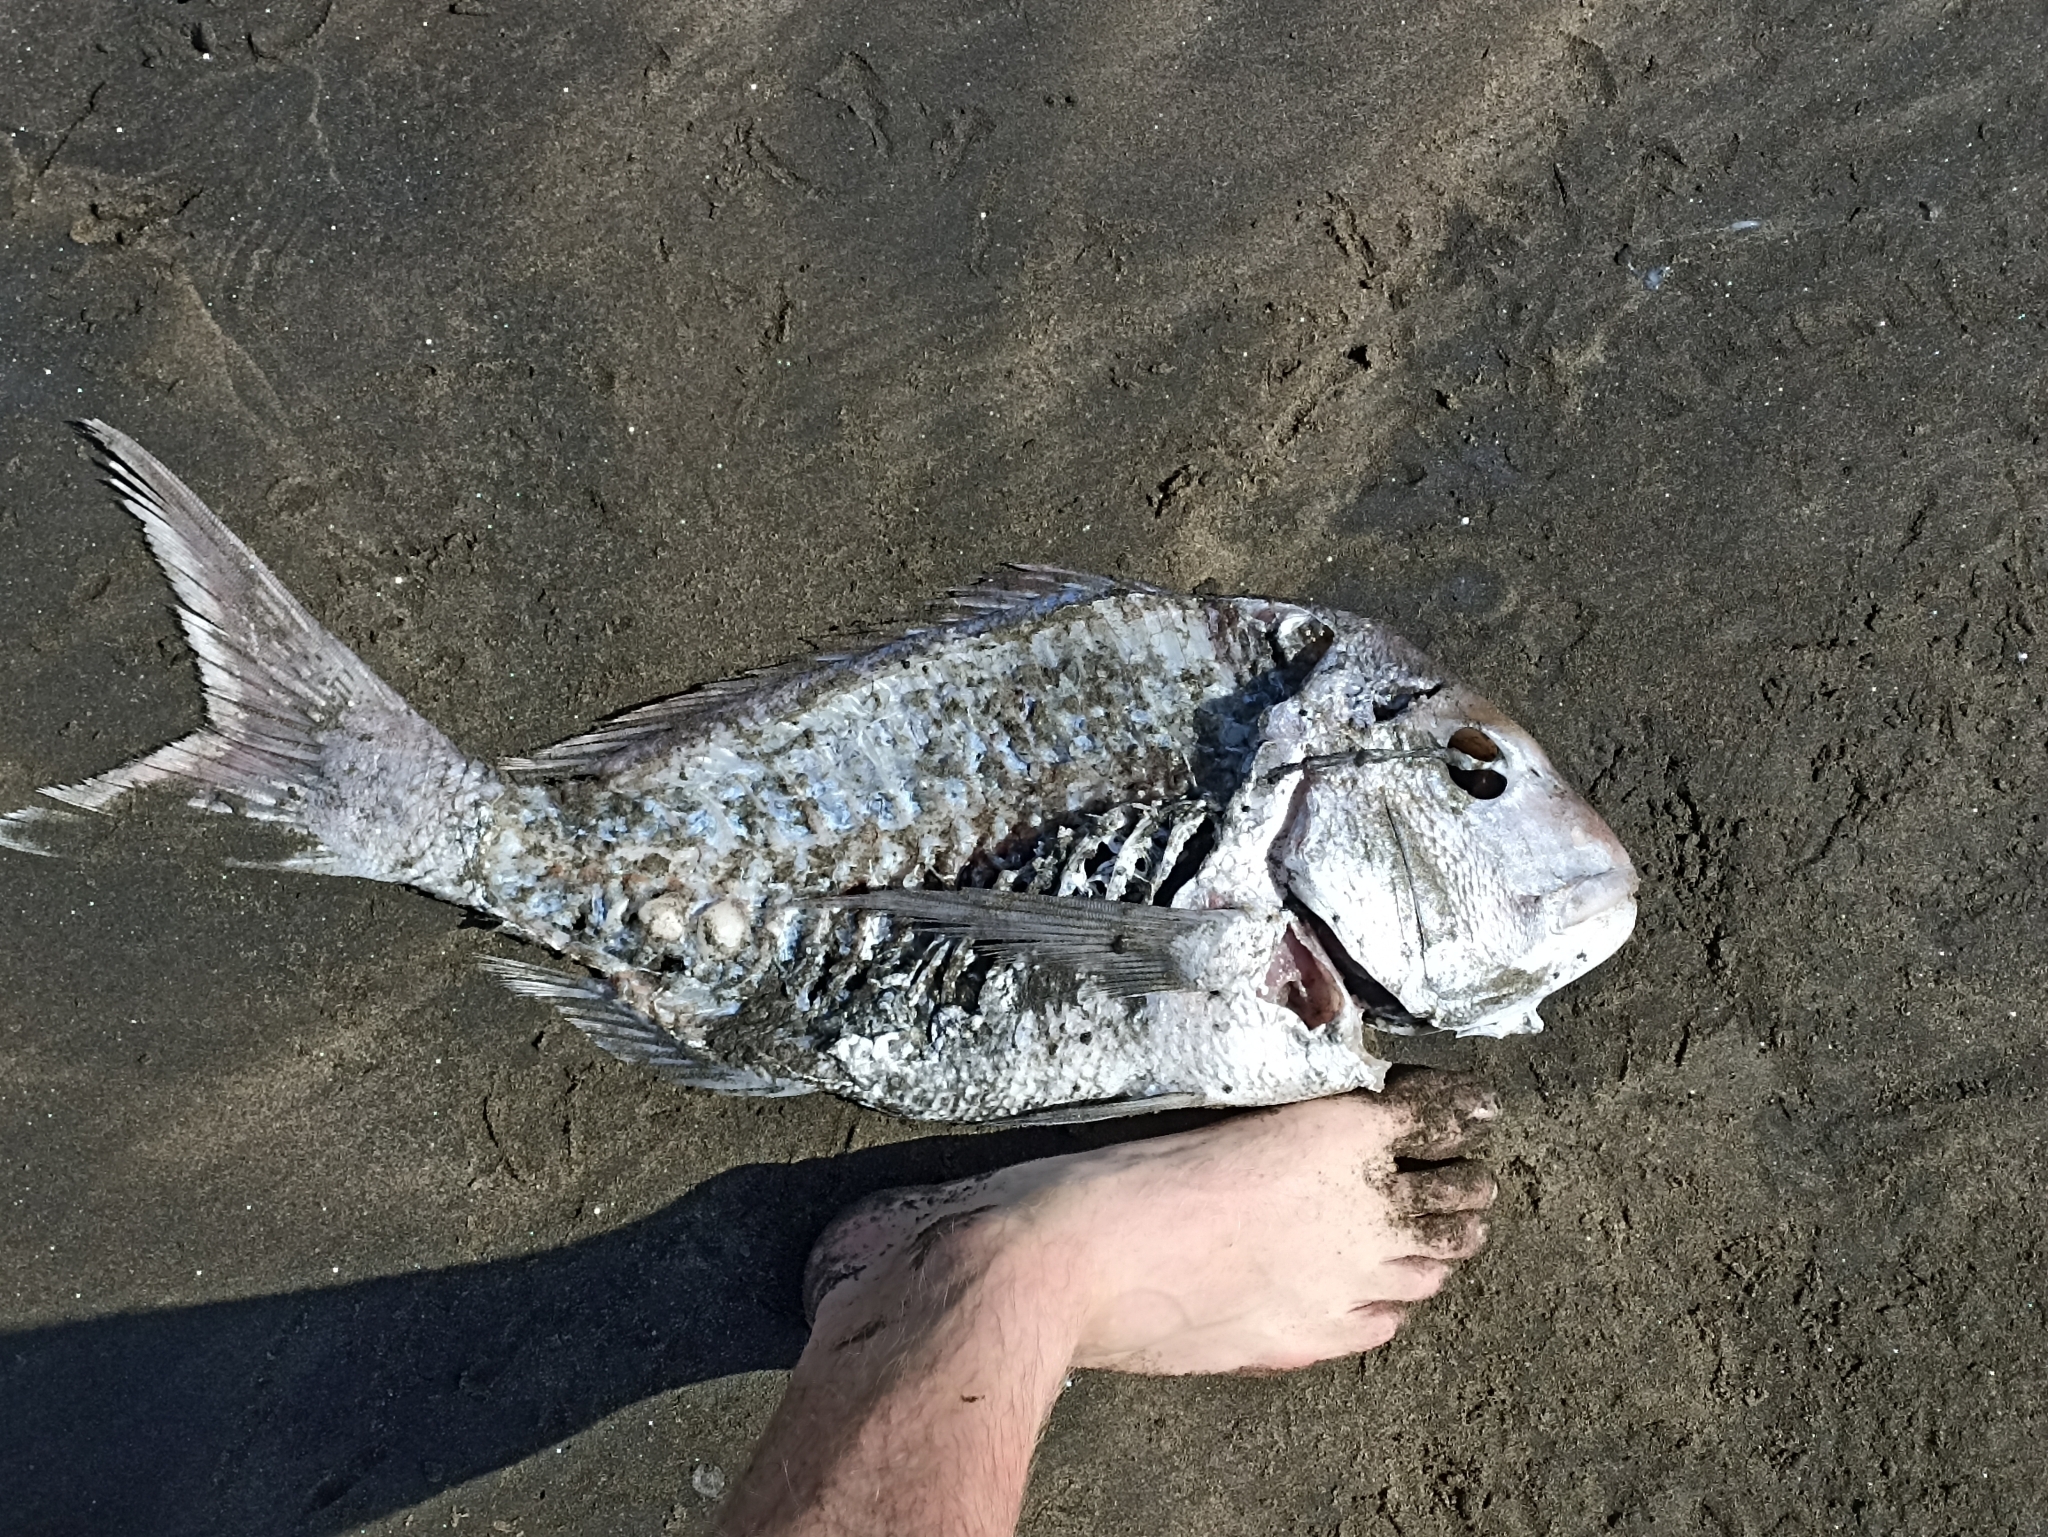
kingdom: Animalia
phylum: Chordata
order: Perciformes
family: Sparidae
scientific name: Sparidae
